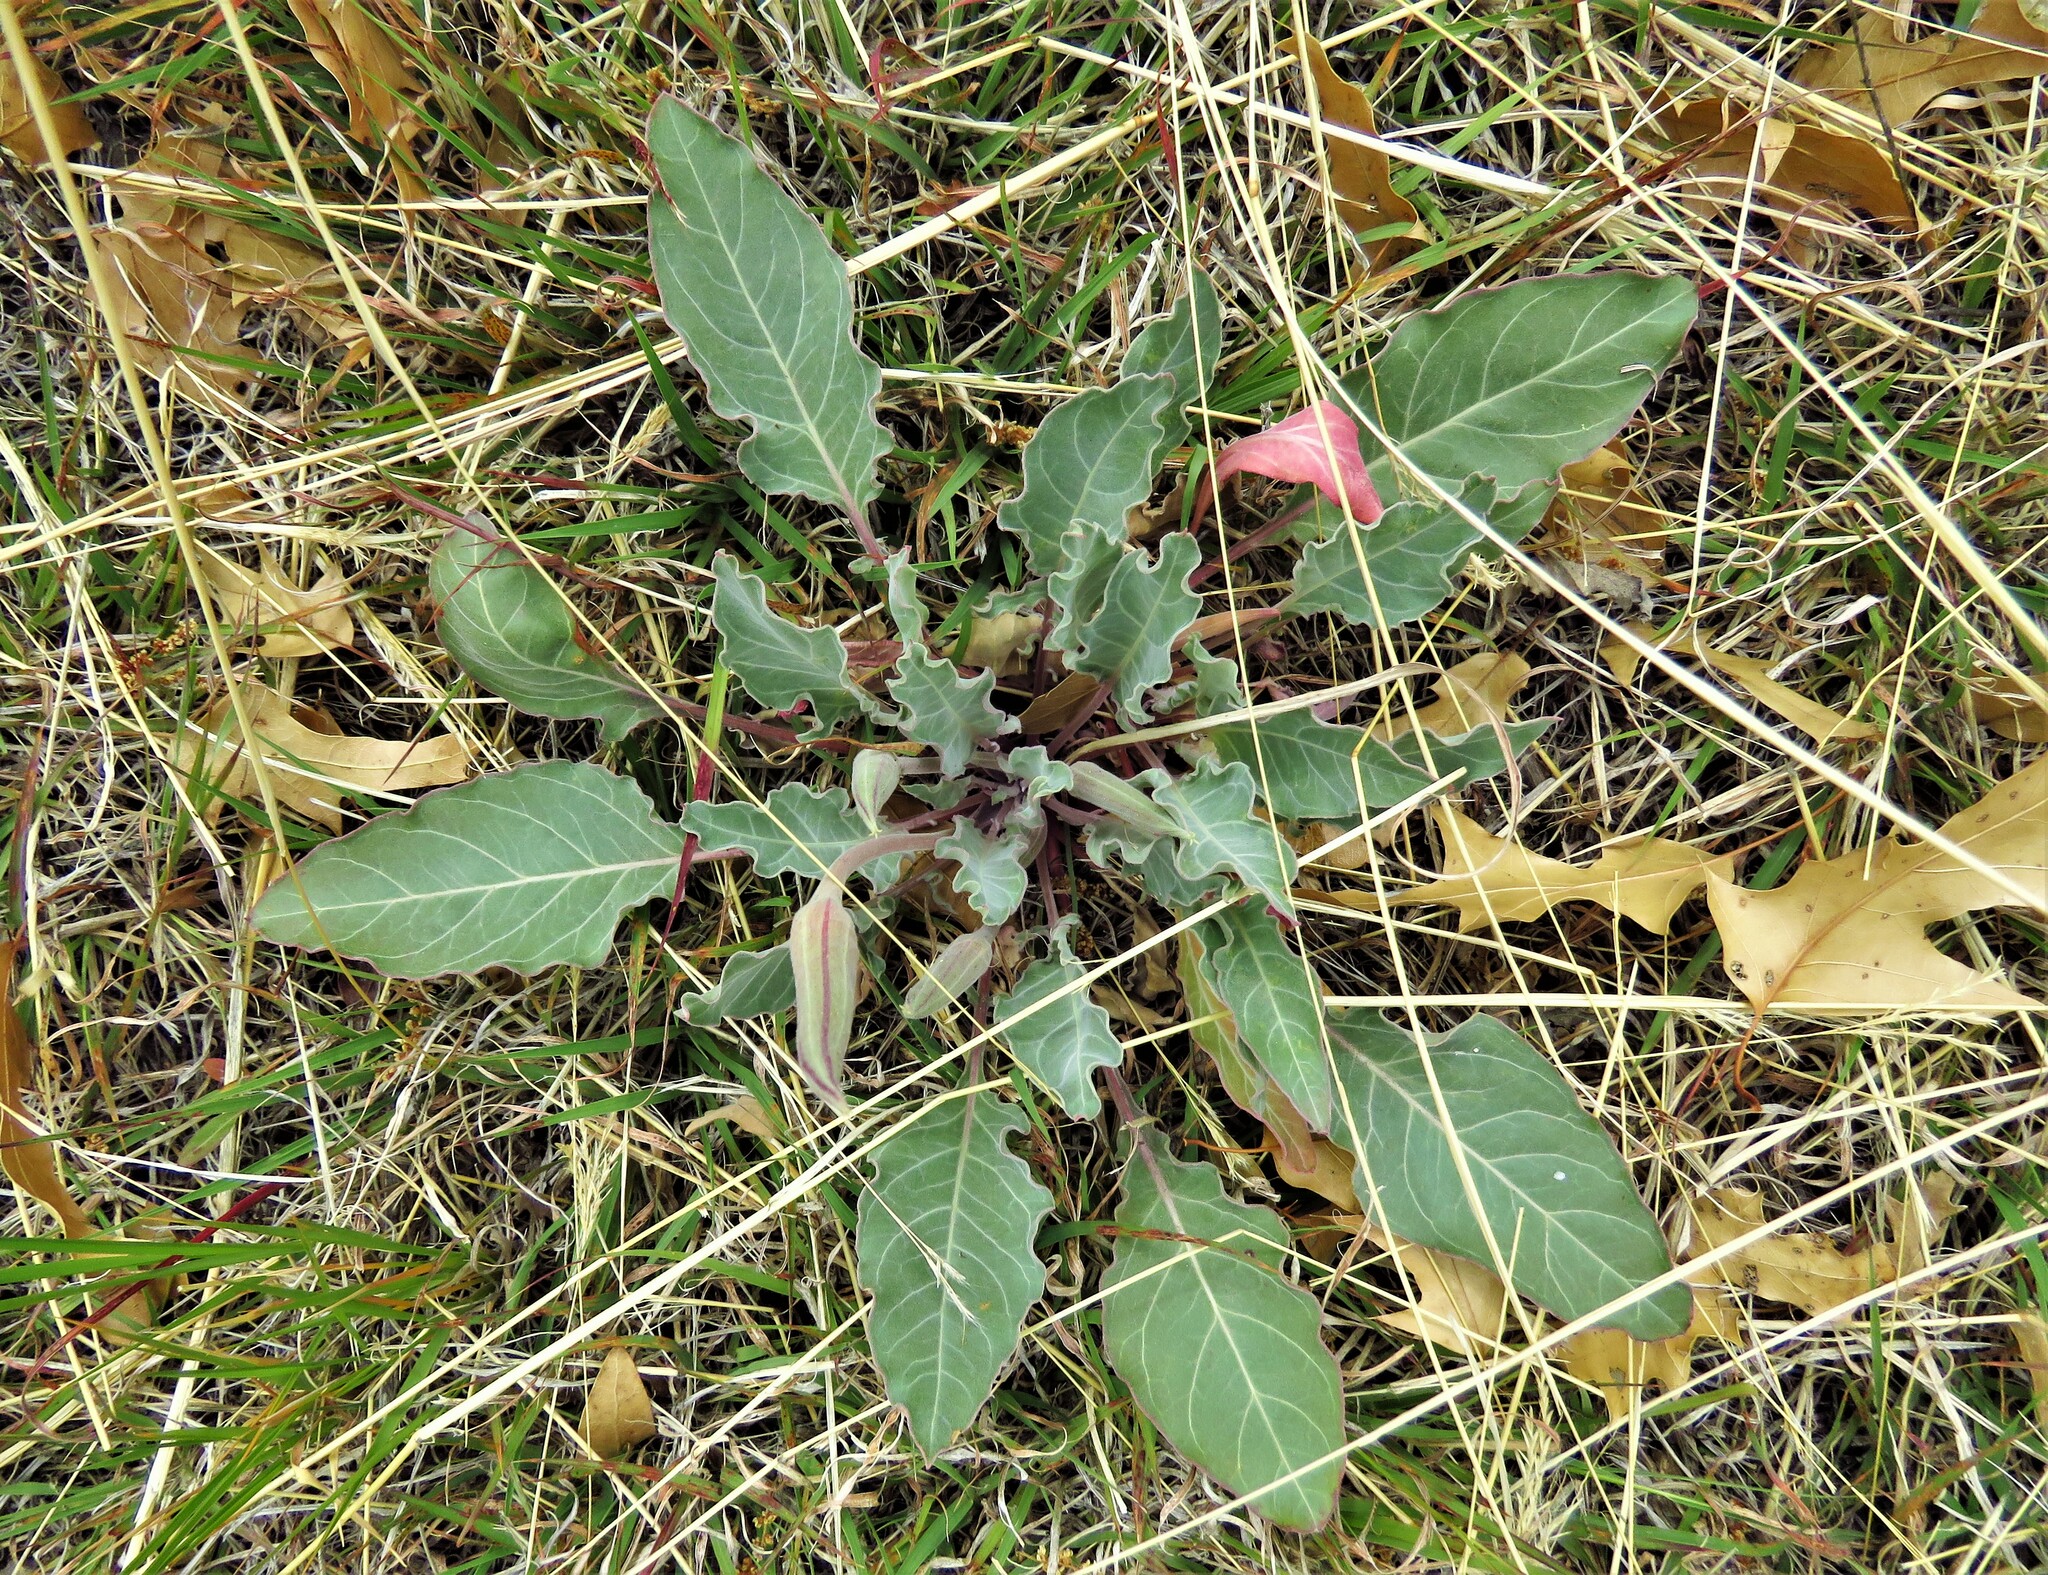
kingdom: Plantae
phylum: Tracheophyta
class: Magnoliopsida
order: Myrtales
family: Onagraceae
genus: Oenothera
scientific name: Oenothera brachycarpa
